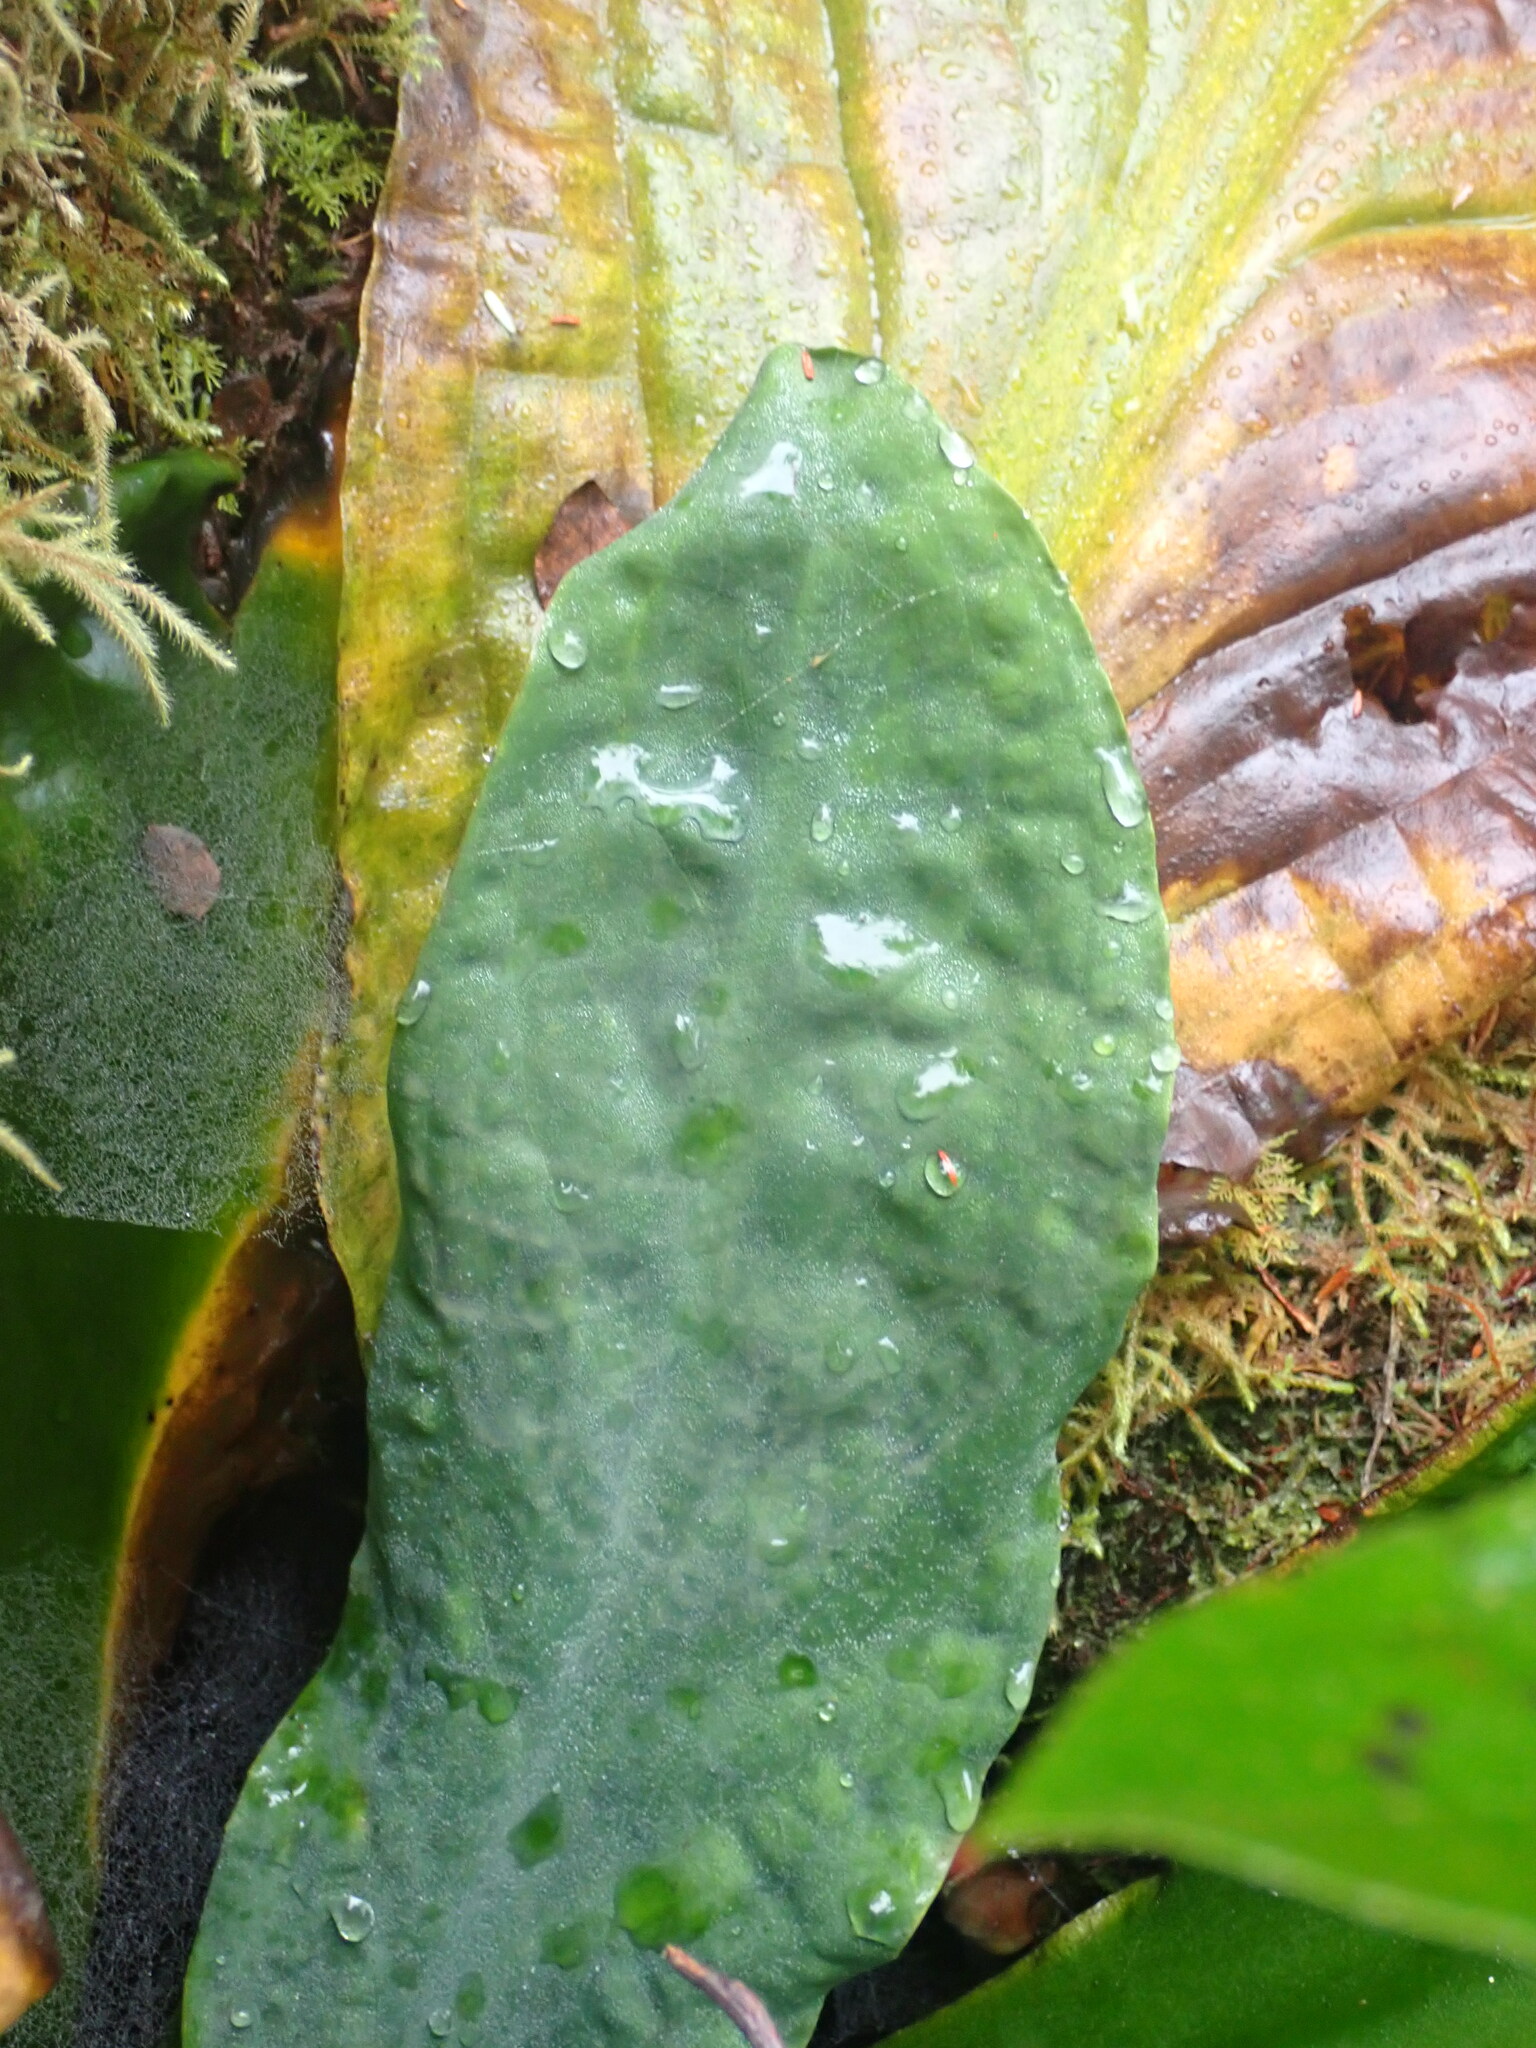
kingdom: Plantae
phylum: Tracheophyta
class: Liliopsida
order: Alismatales
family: Araceae
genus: Lysichiton
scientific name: Lysichiton americanus
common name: American skunk cabbage
